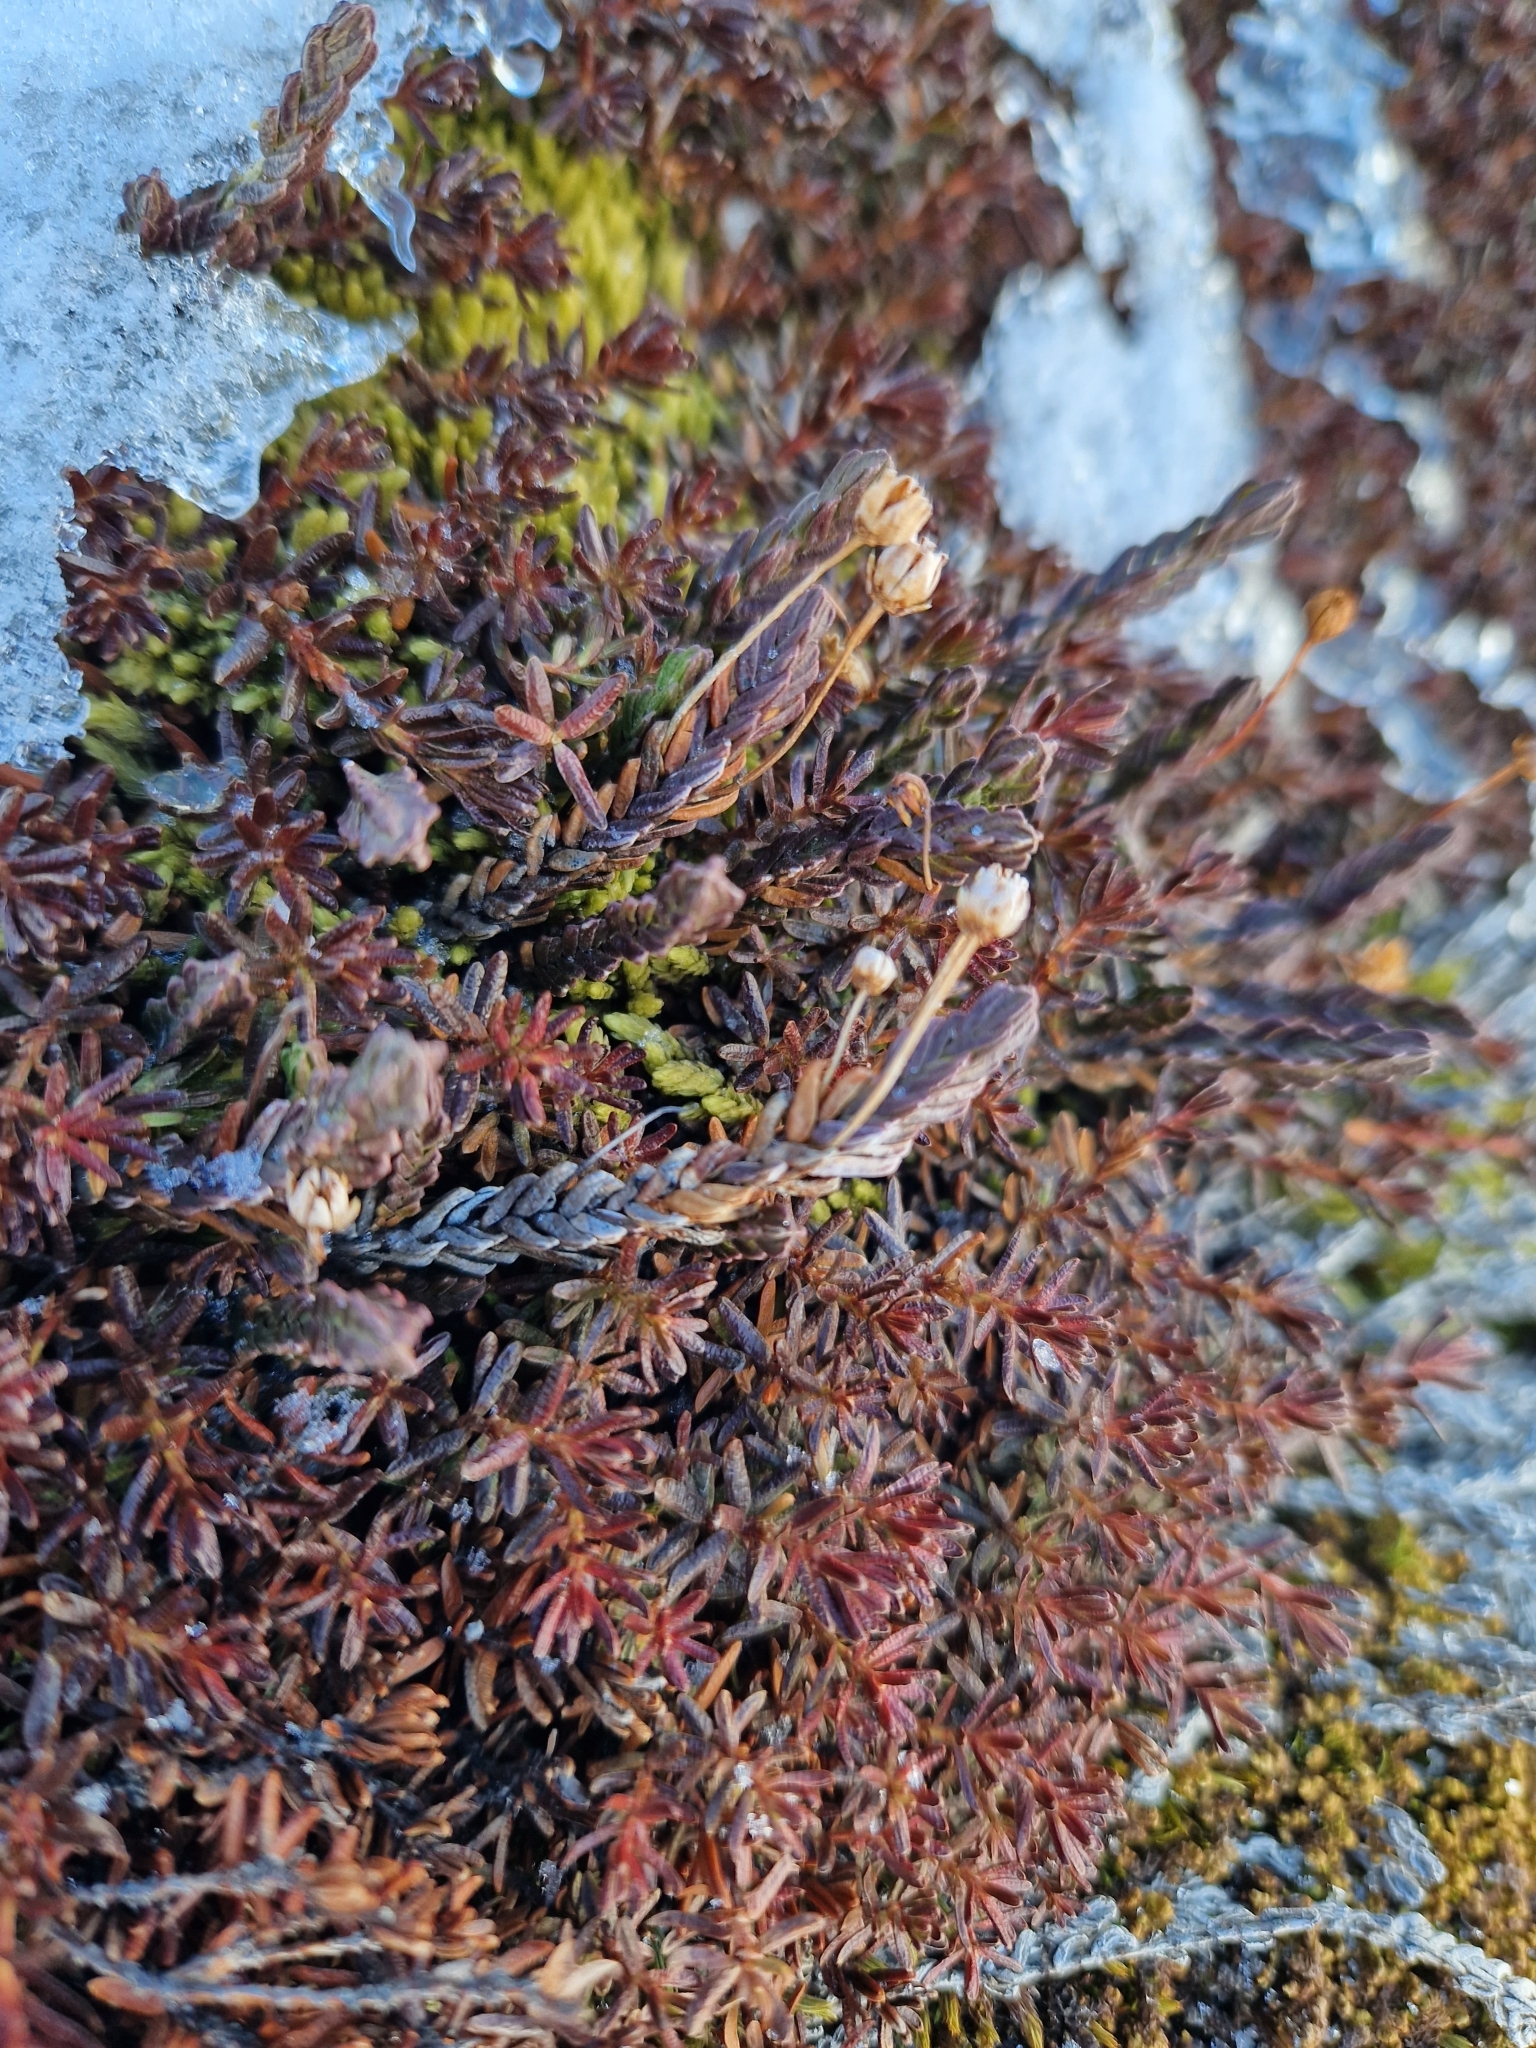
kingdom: Plantae
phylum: Tracheophyta
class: Magnoliopsida
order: Ericales
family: Ericaceae
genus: Cassiope
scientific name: Cassiope tetragona
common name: Arctic bell heather
